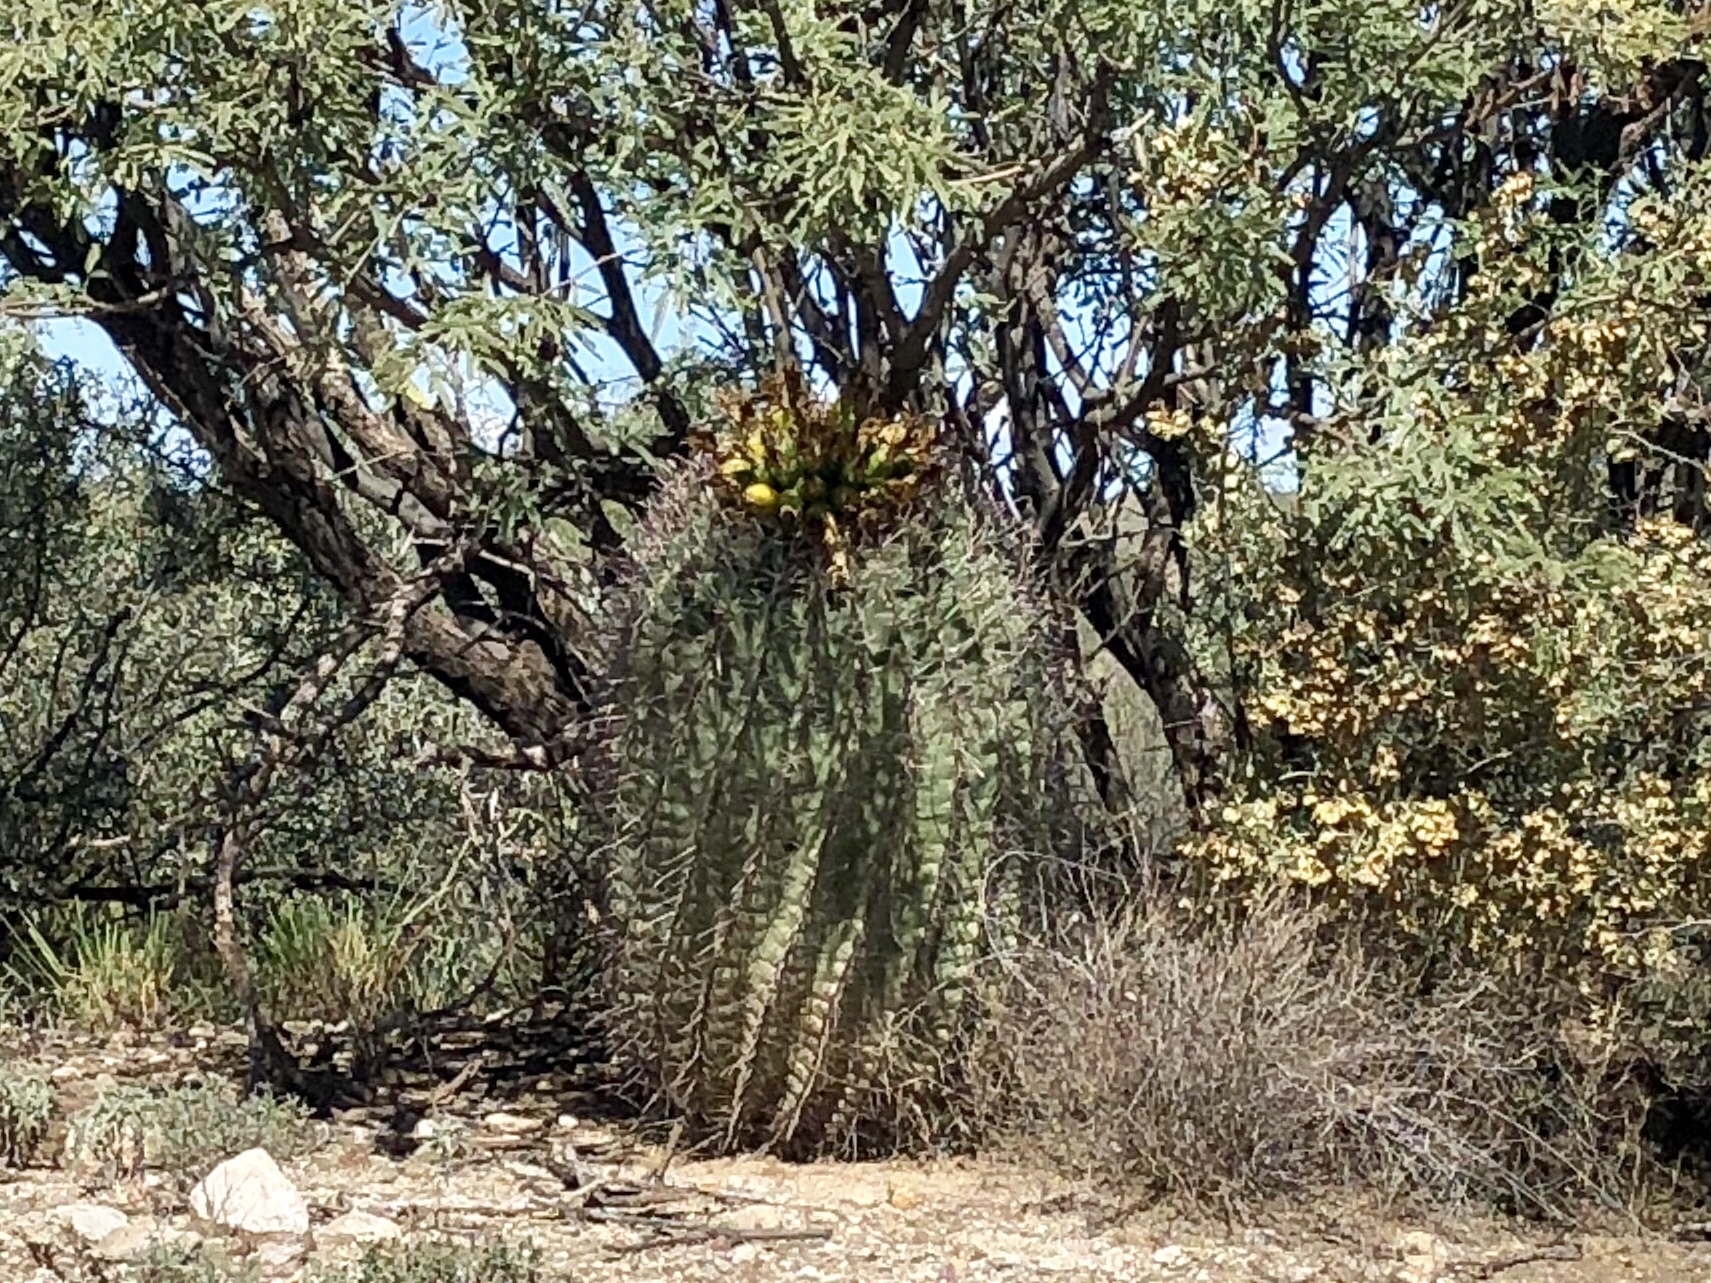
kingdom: Plantae
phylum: Tracheophyta
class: Magnoliopsida
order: Caryophyllales
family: Cactaceae
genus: Ferocactus
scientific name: Ferocactus wislizeni
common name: Candy barrel cactus
